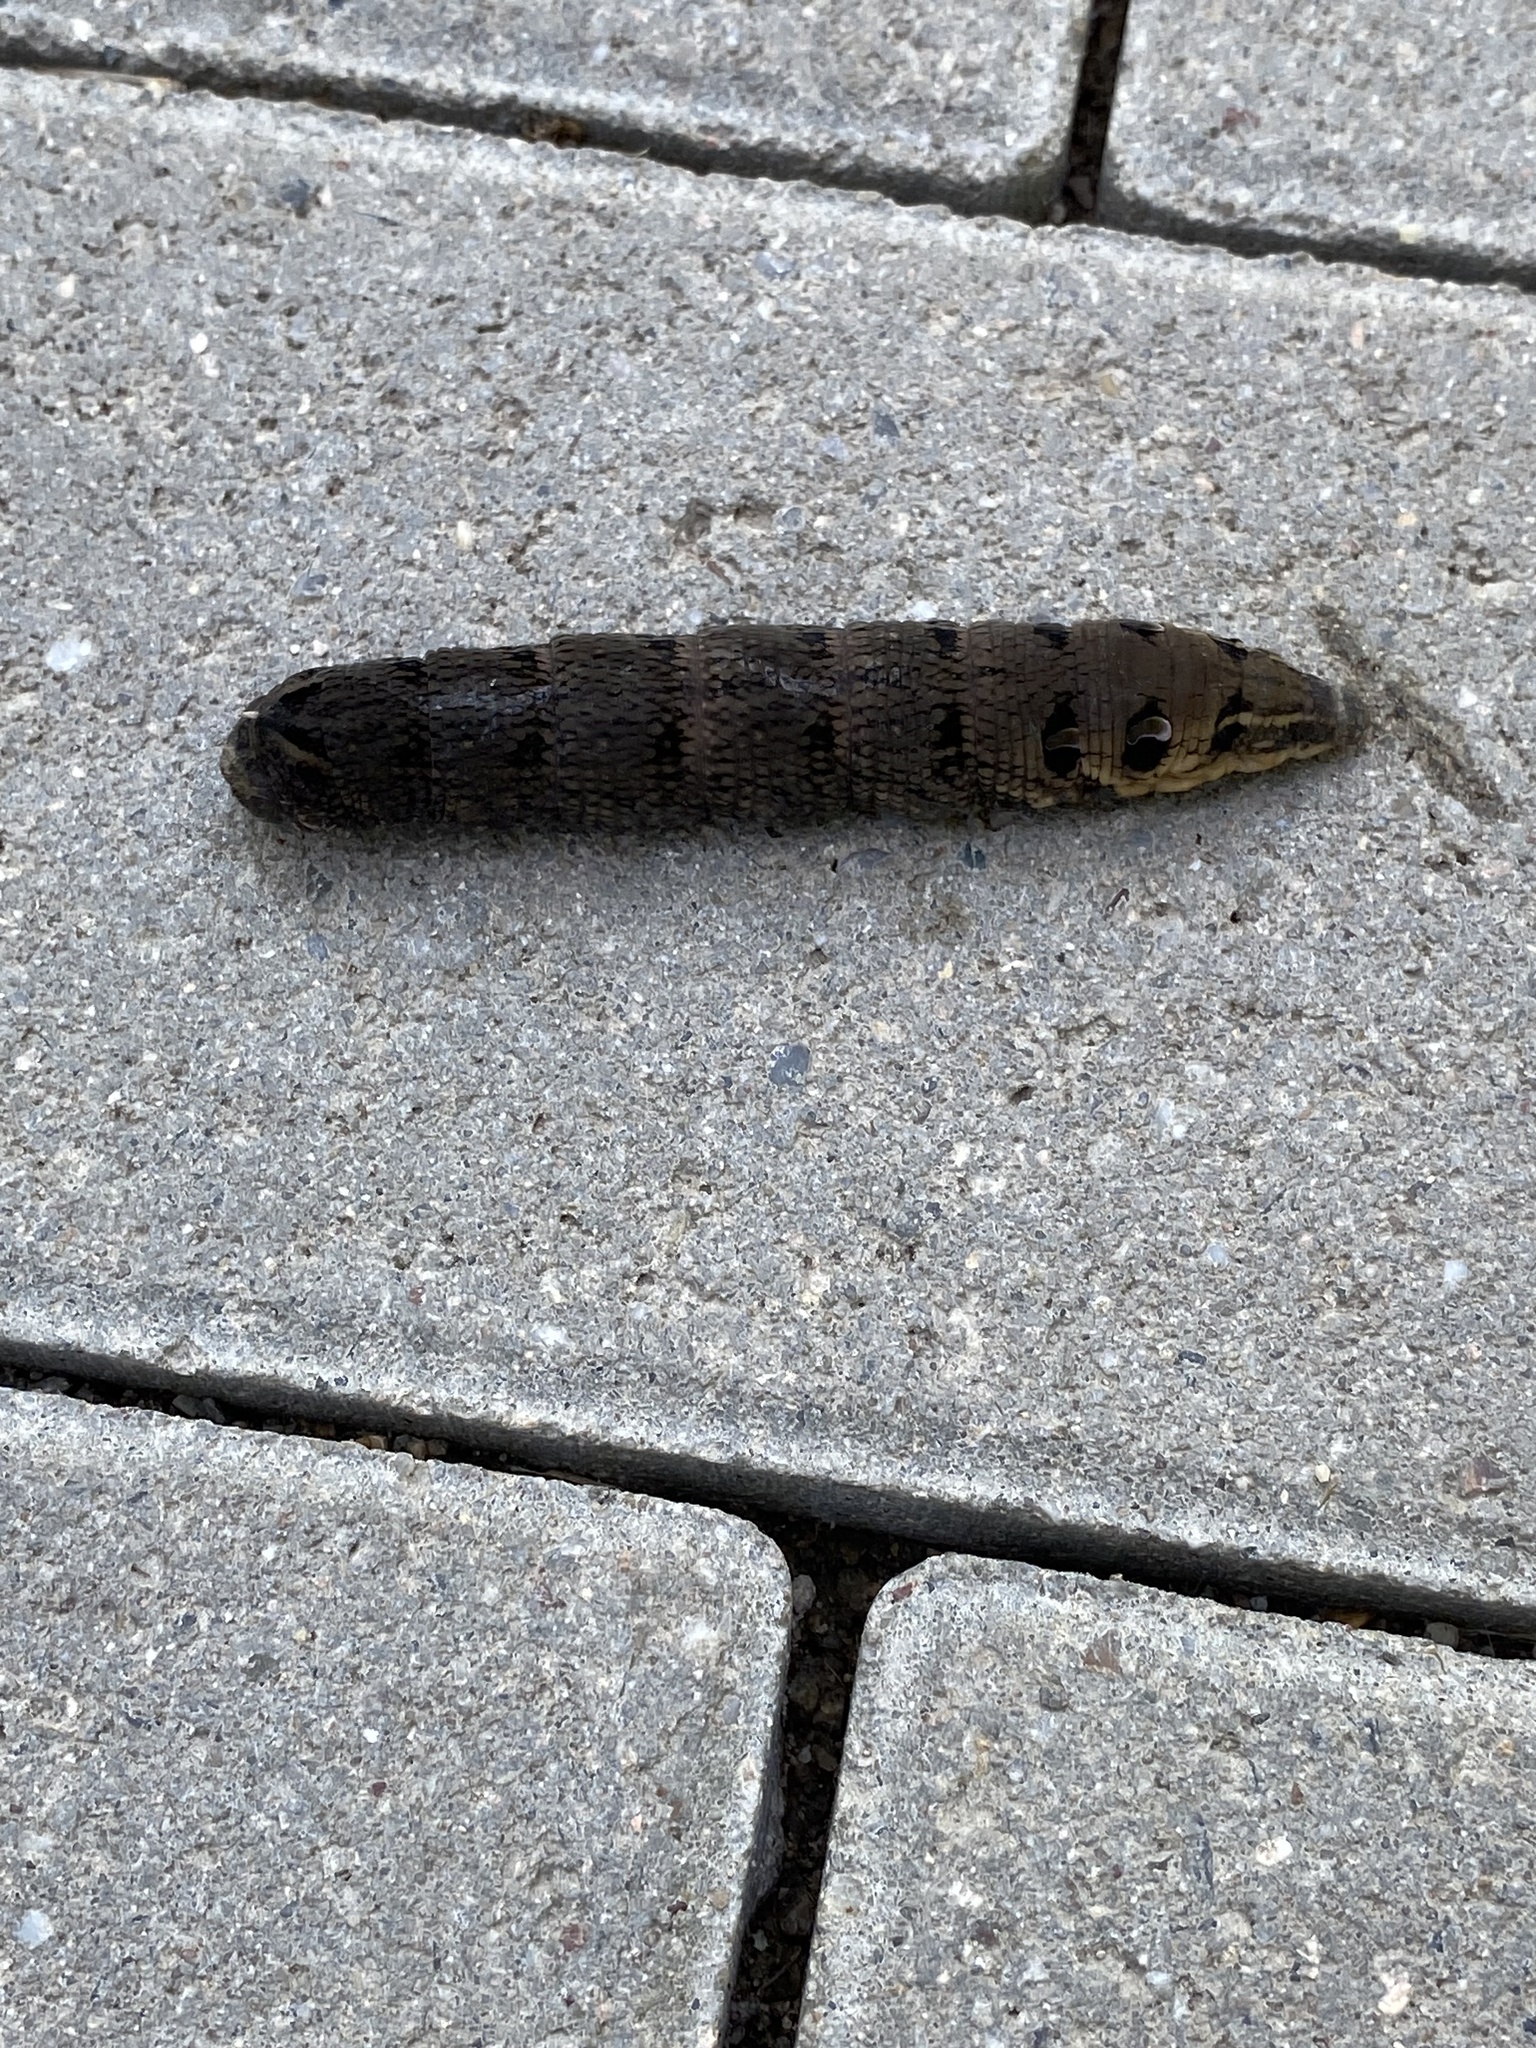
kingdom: Animalia
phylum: Arthropoda
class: Insecta
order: Lepidoptera
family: Sphingidae
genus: Deilephila
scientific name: Deilephila elpenor
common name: Elephant hawk-moth
